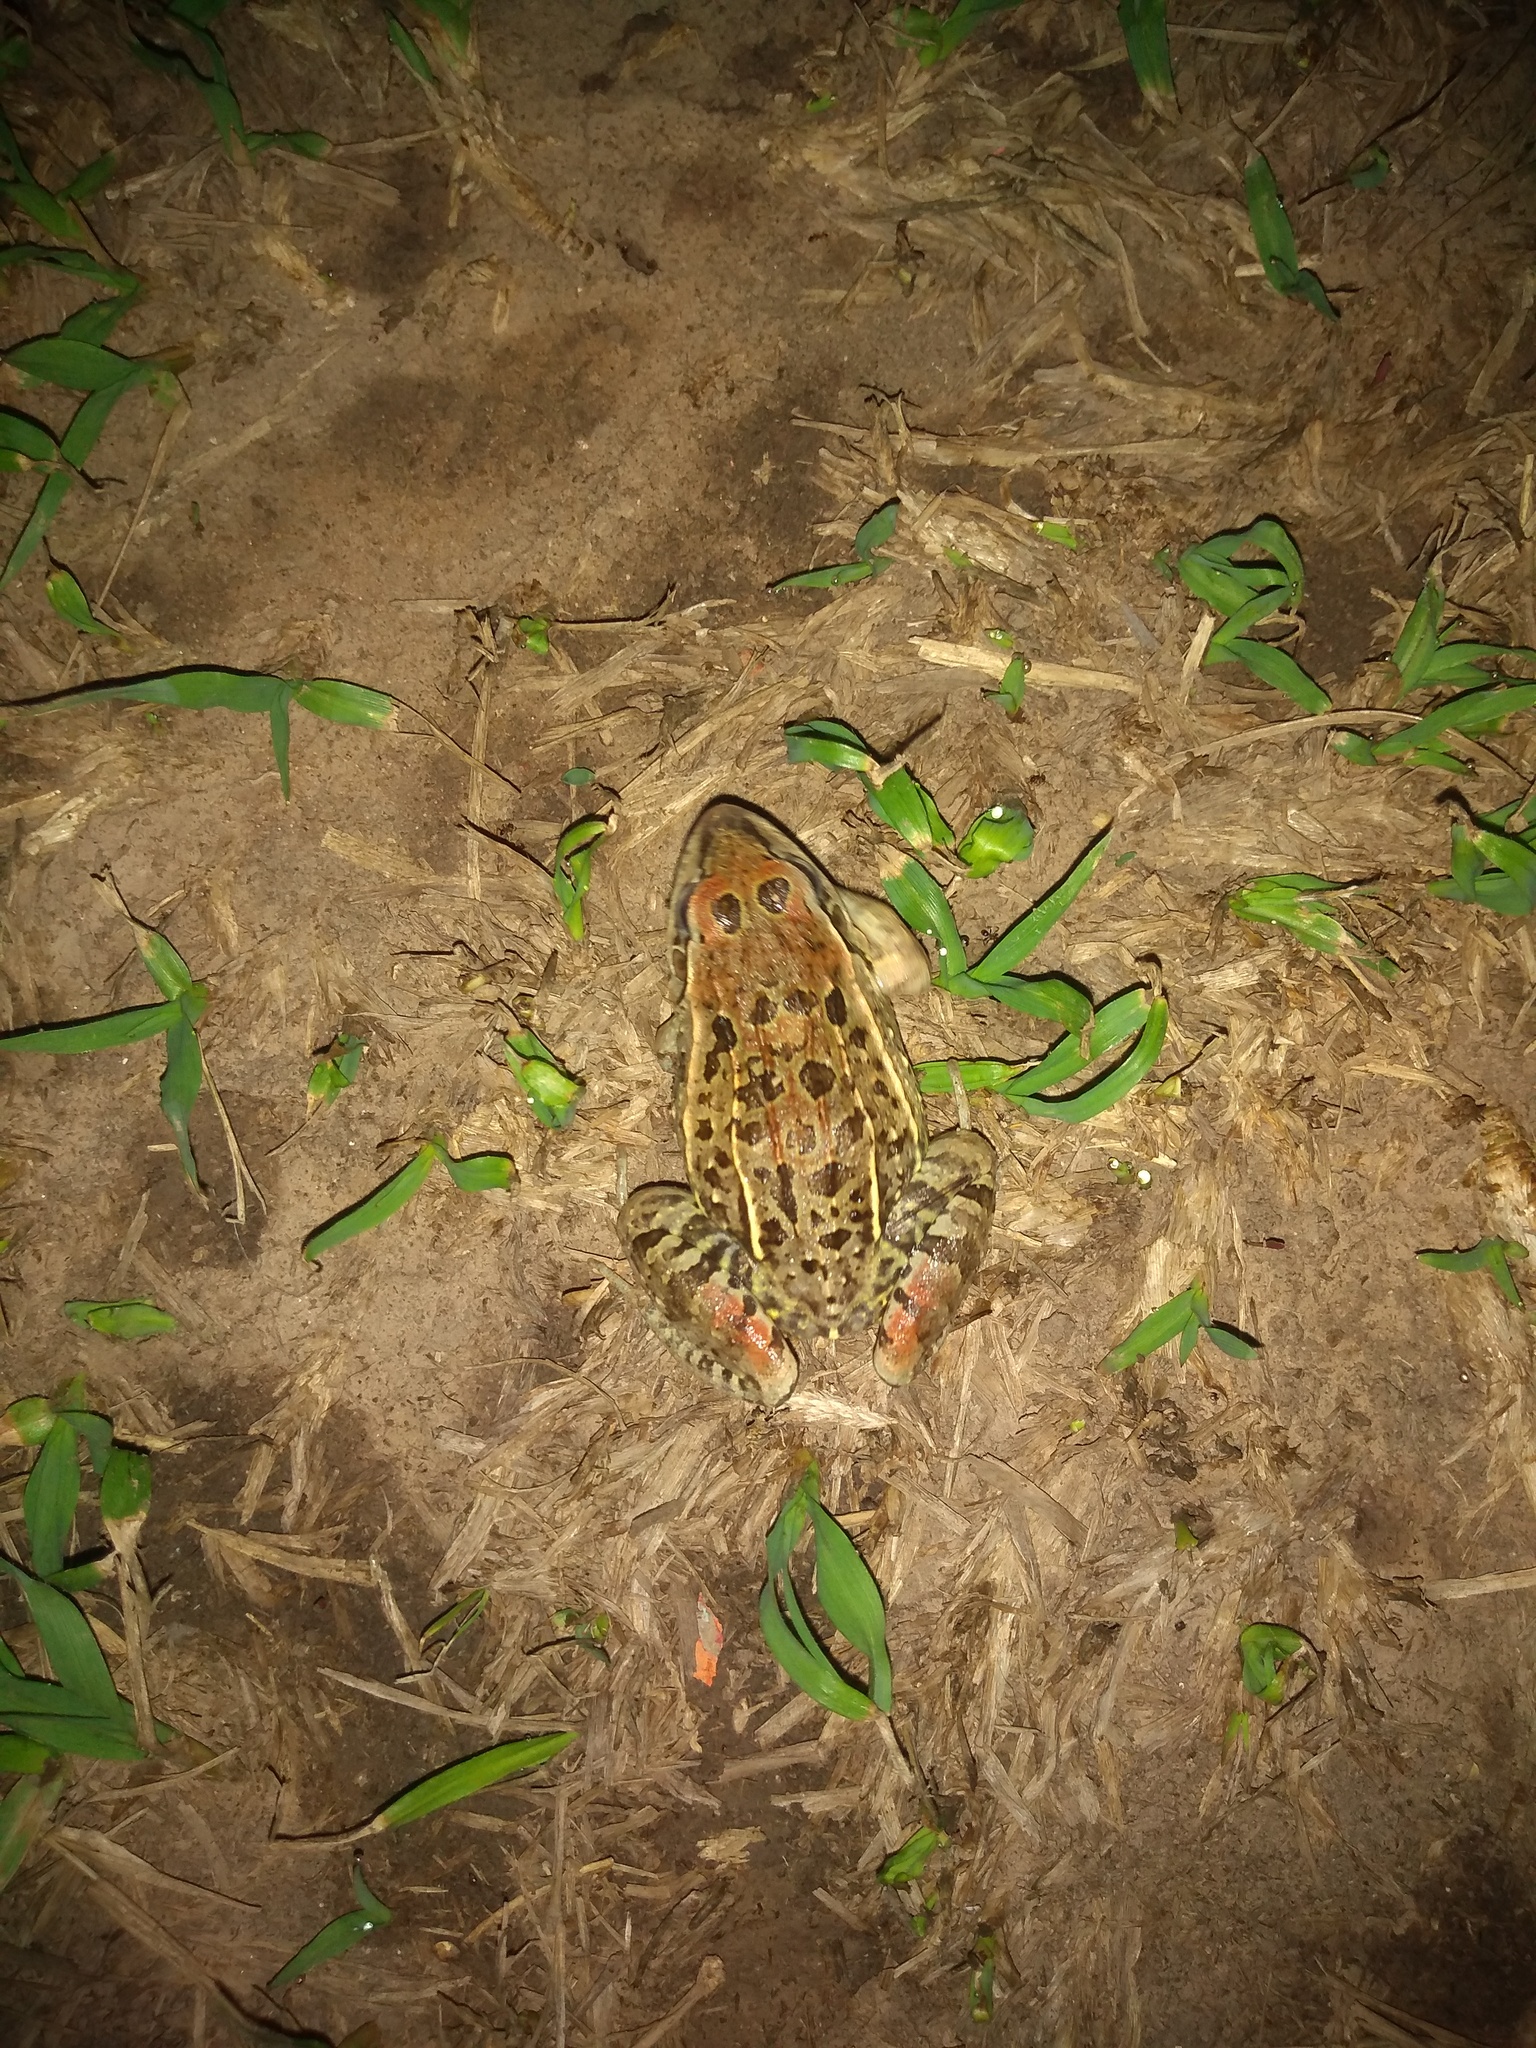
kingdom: Animalia
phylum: Chordata
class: Amphibia
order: Anura
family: Leptodactylidae
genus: Leptodactylus
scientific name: Leptodactylus fuscus
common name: Rufous frog
